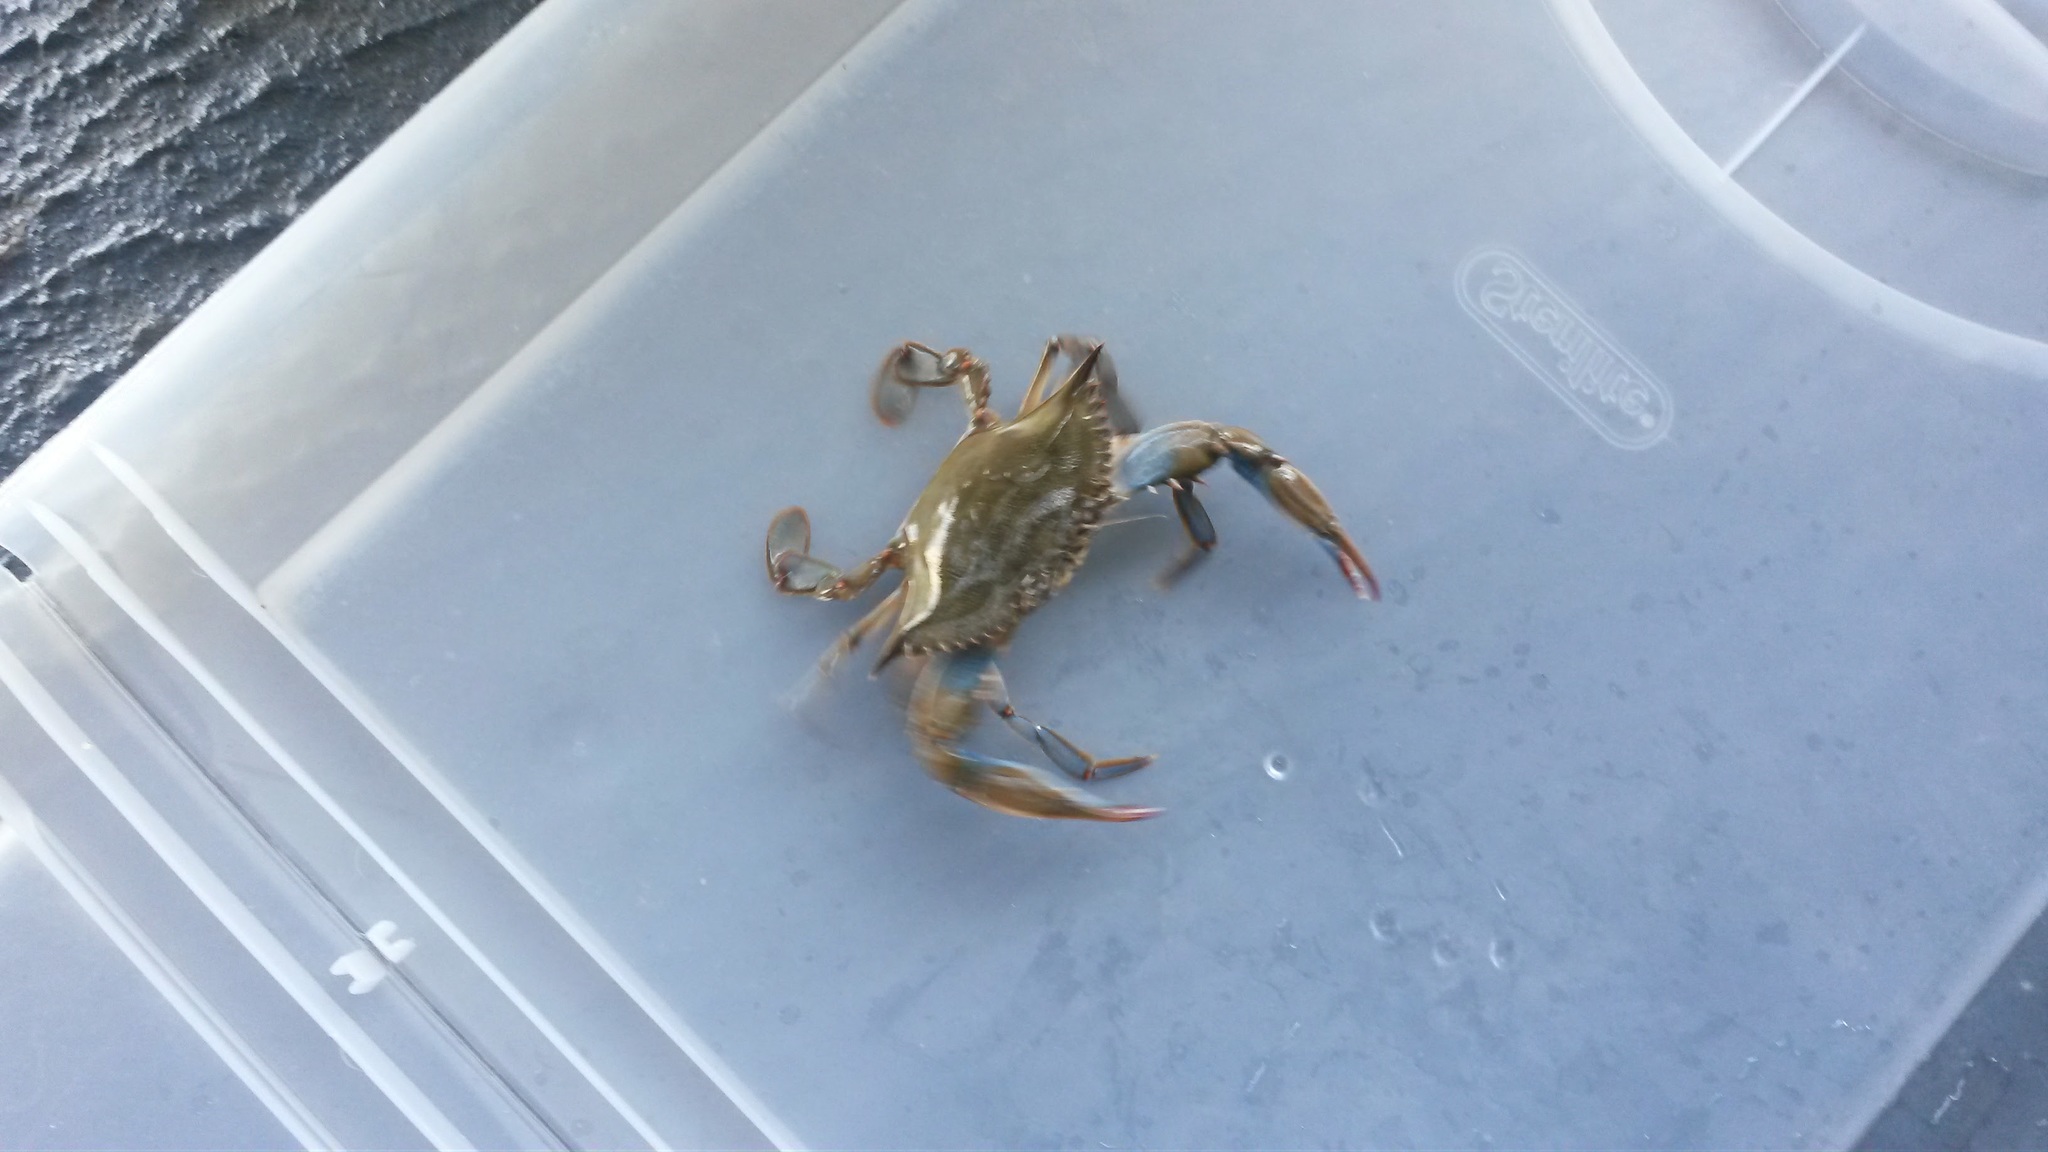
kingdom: Animalia
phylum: Arthropoda
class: Malacostraca
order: Decapoda
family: Portunidae
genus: Callinectes
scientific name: Callinectes sapidus
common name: Blue crab
